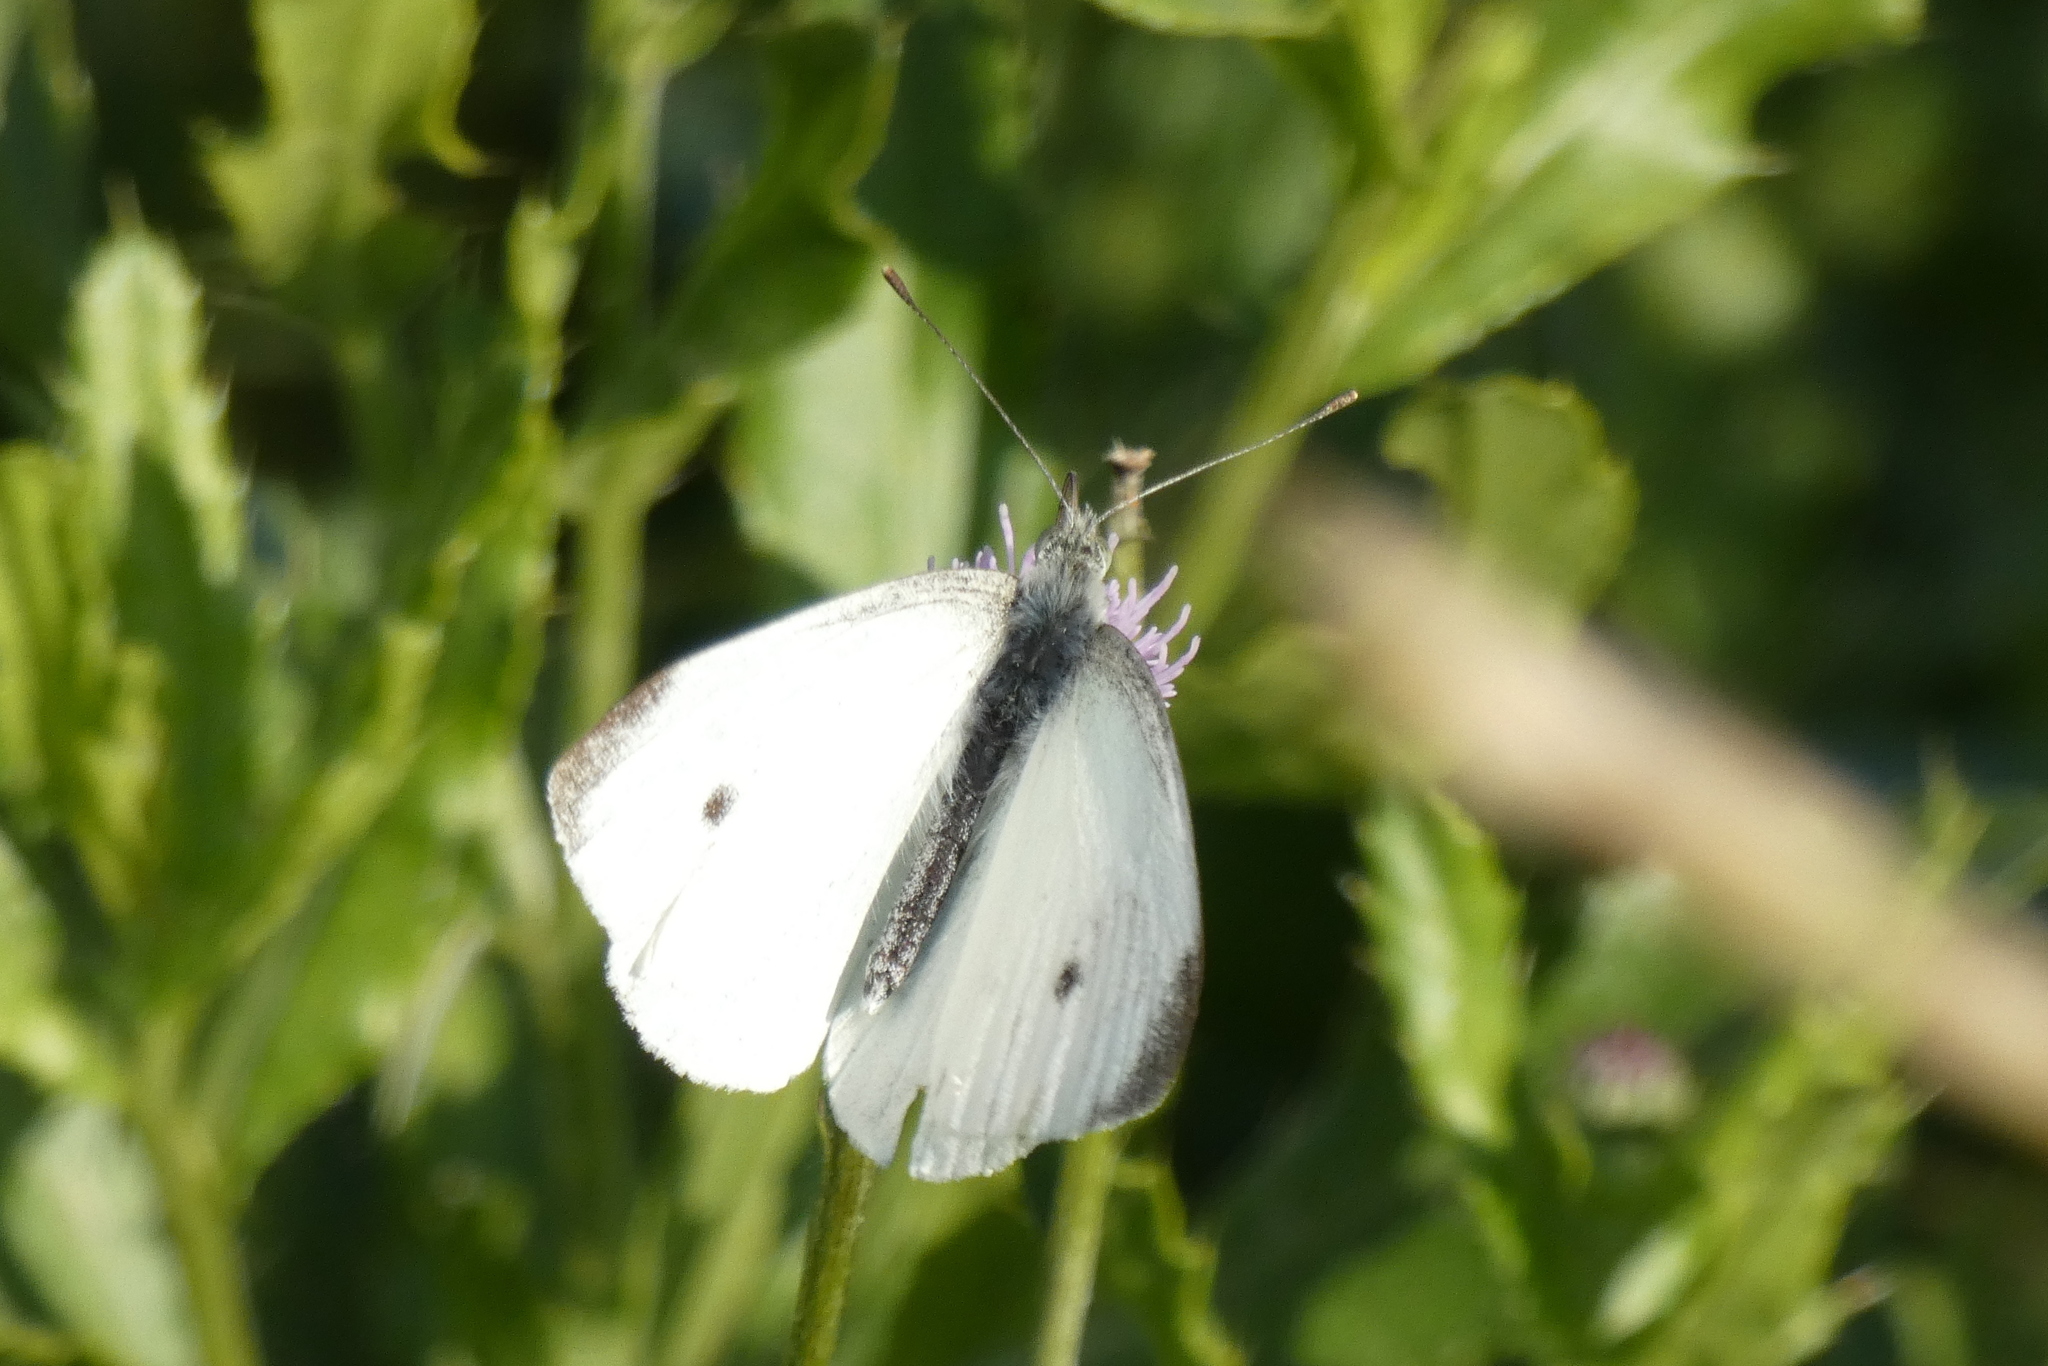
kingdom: Animalia
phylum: Arthropoda
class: Insecta
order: Lepidoptera
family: Pieridae
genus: Pieris
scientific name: Pieris rapae
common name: Small white
